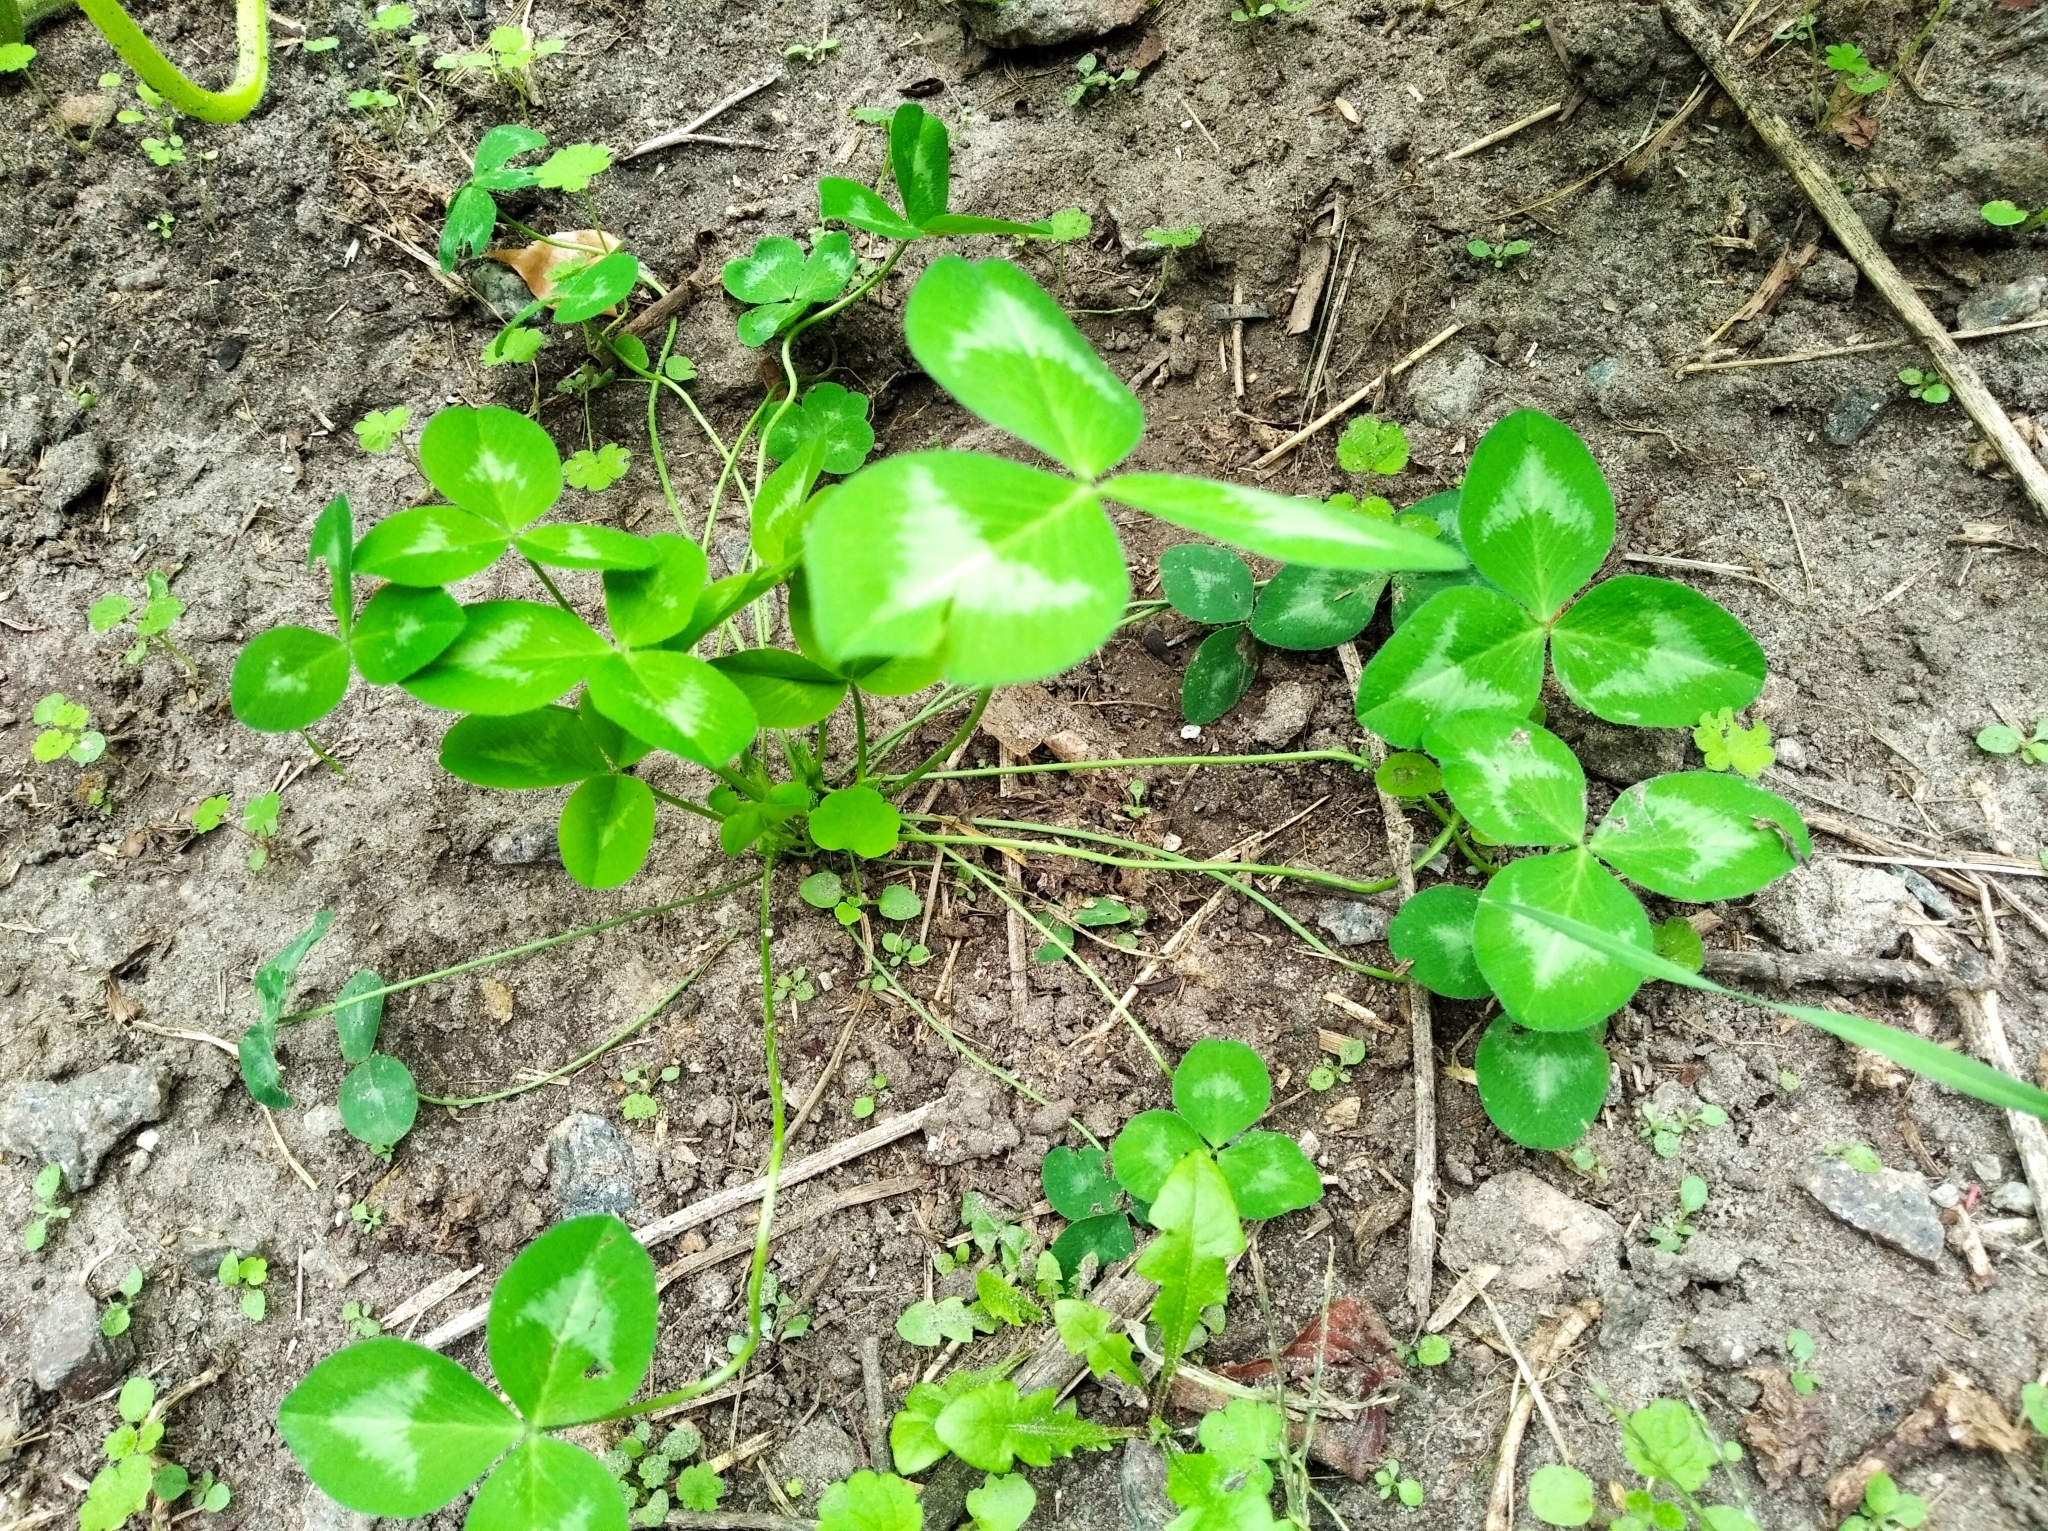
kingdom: Plantae
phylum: Tracheophyta
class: Magnoliopsida
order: Fabales
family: Fabaceae
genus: Trifolium
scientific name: Trifolium repens
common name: White clover
